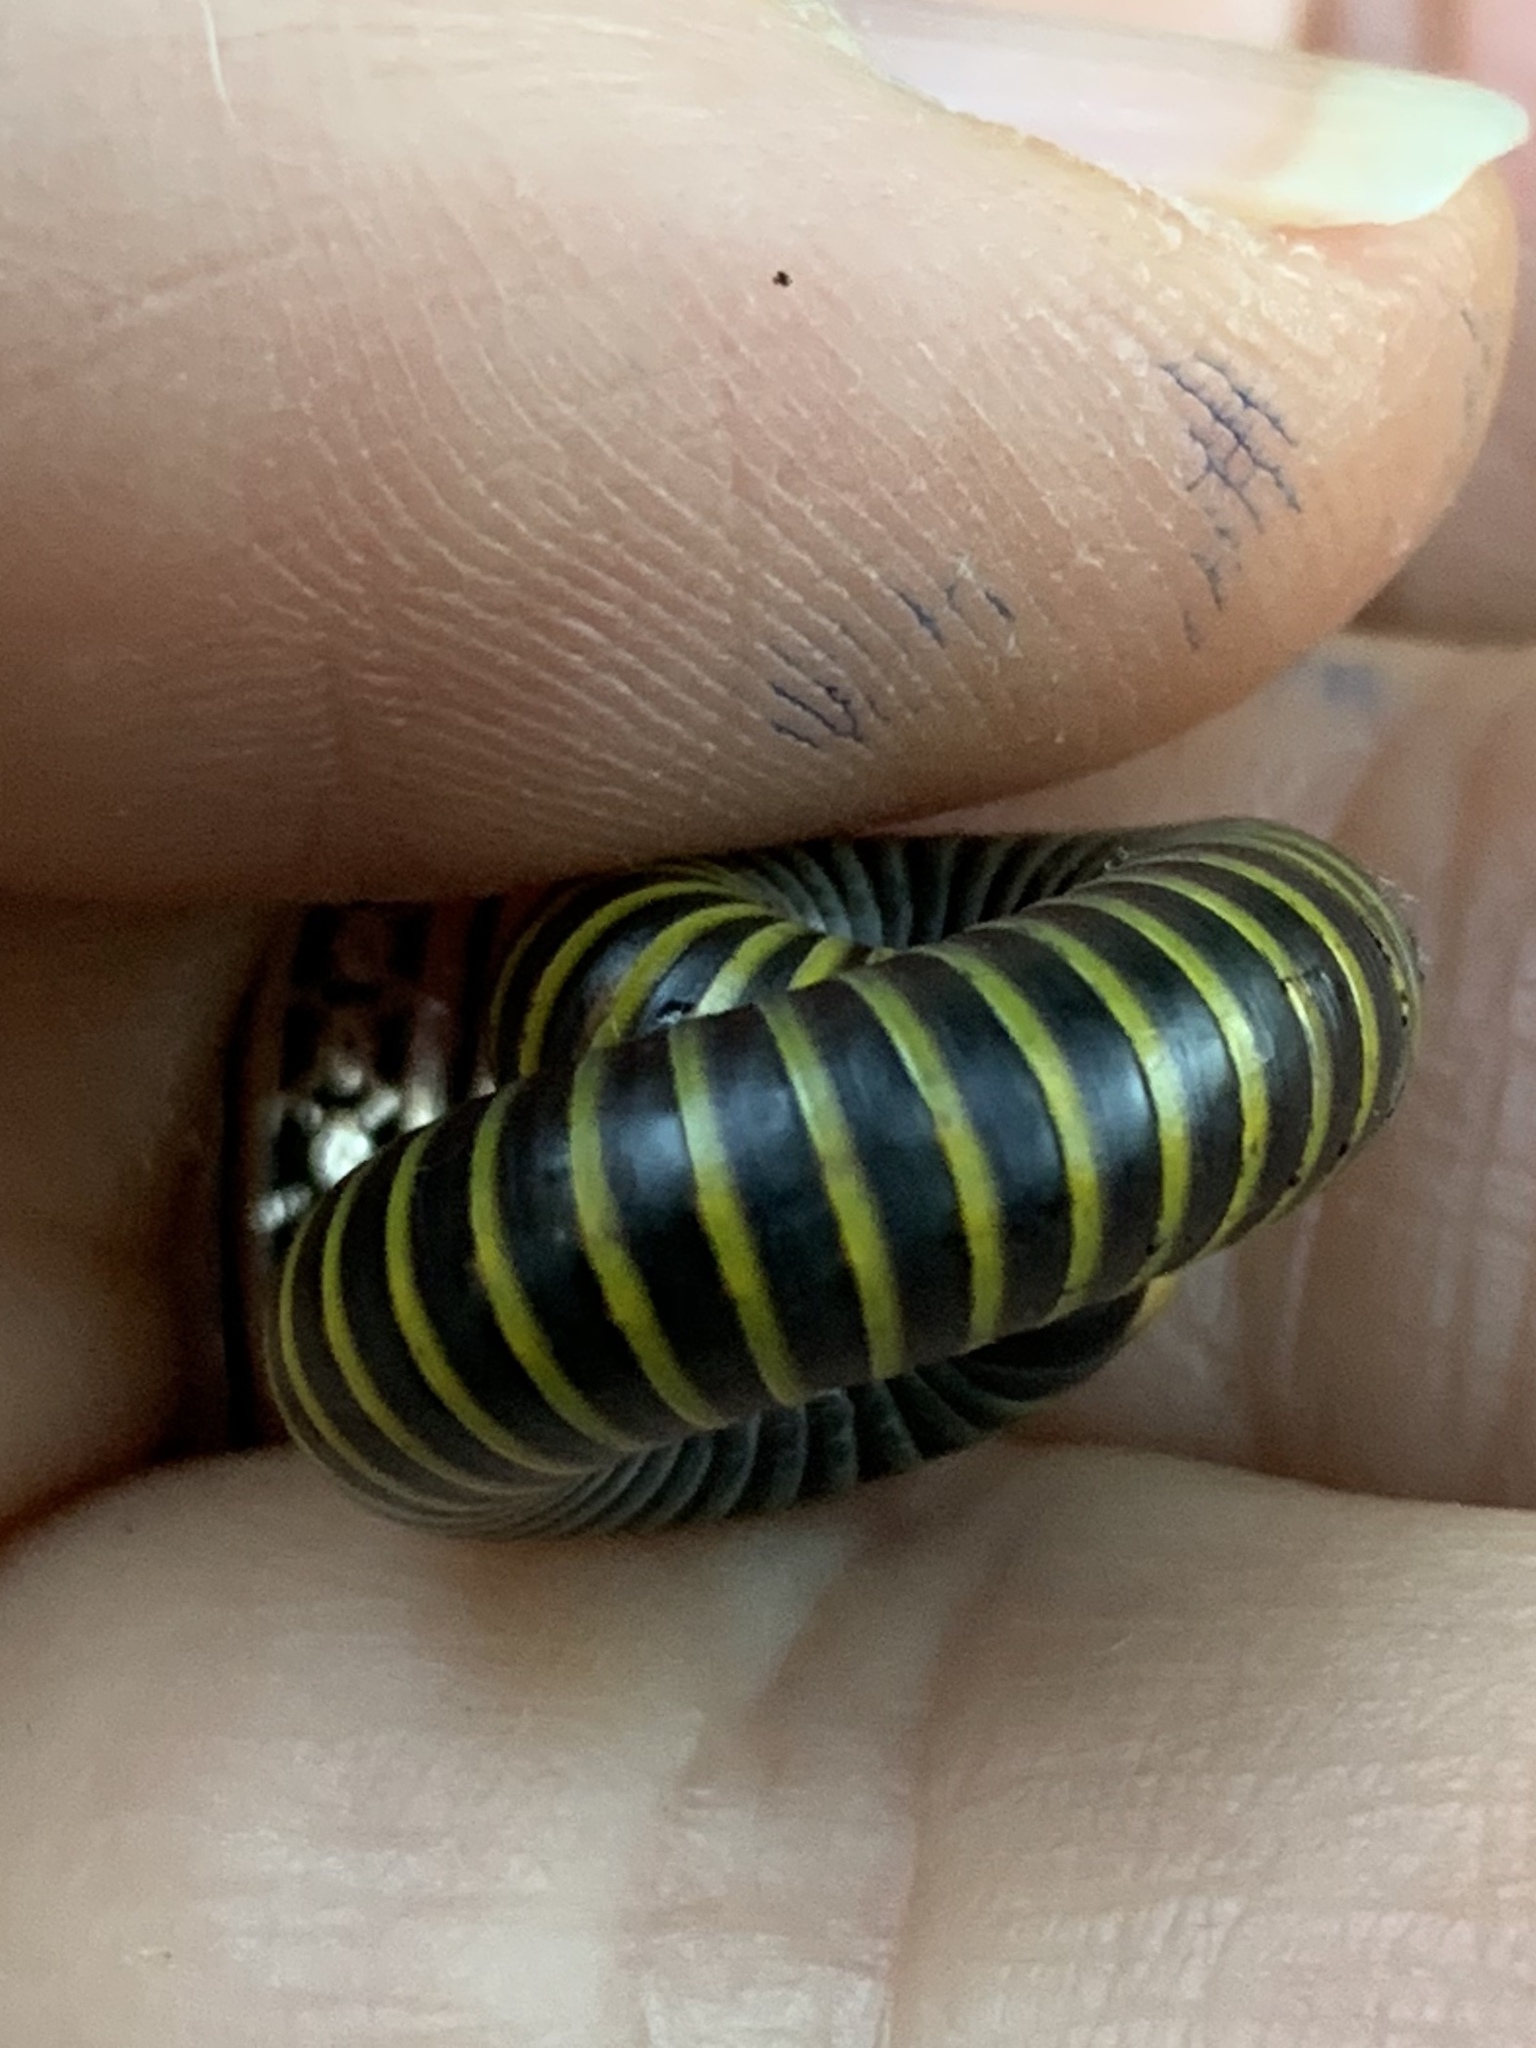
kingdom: Animalia
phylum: Arthropoda
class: Diplopoda
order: Spirobolida
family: Rhinocricidae
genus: Anadenobolus
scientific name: Anadenobolus monilicornis
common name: Caribbean millipede
